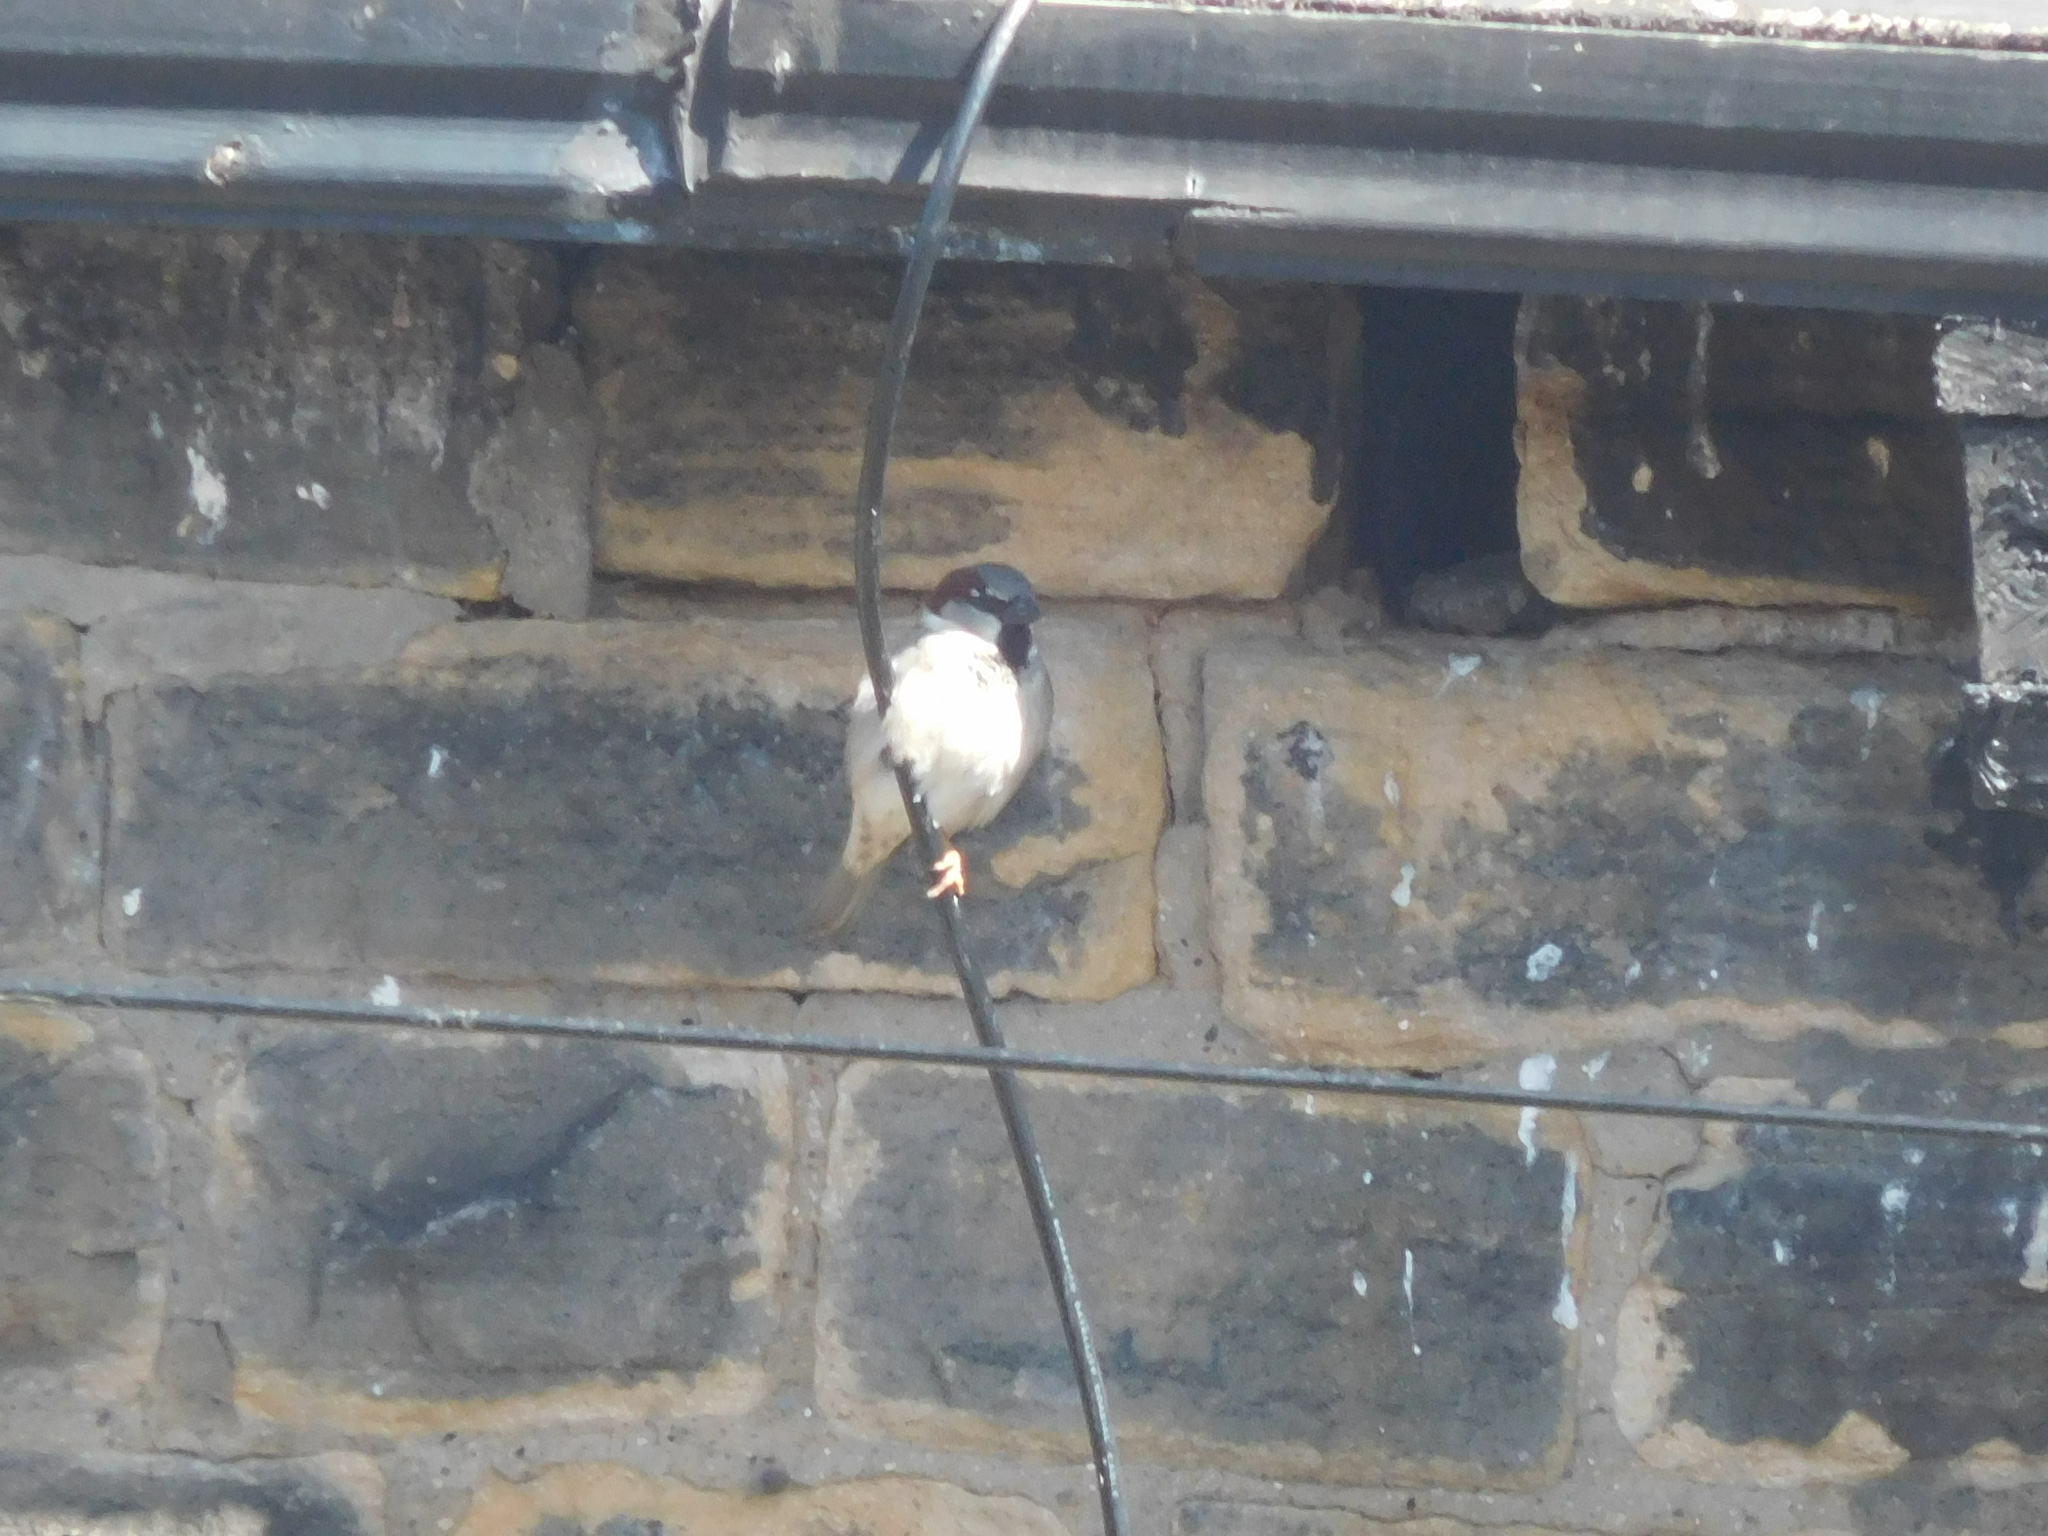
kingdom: Animalia
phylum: Chordata
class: Aves
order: Passeriformes
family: Passeridae
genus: Passer
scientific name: Passer domesticus
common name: House sparrow
